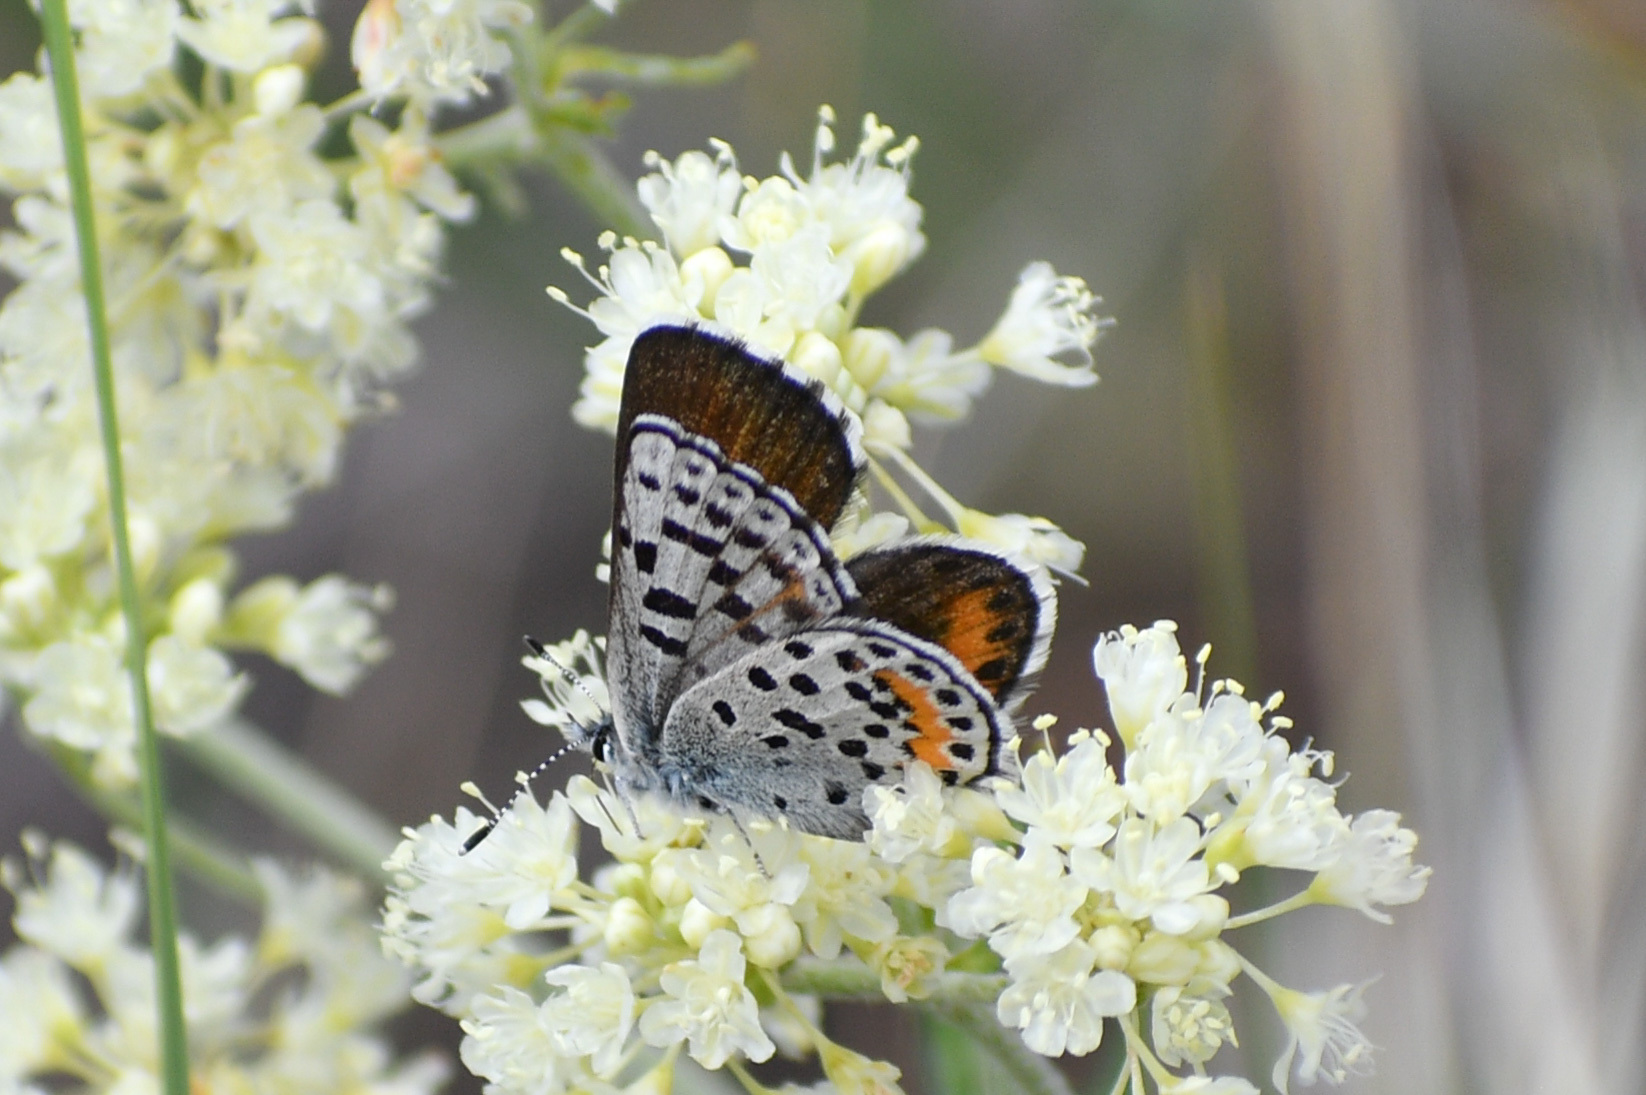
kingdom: Animalia
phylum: Arthropoda
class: Insecta
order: Lepidoptera
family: Lycaenidae
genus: Euphilotes
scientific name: Euphilotes
